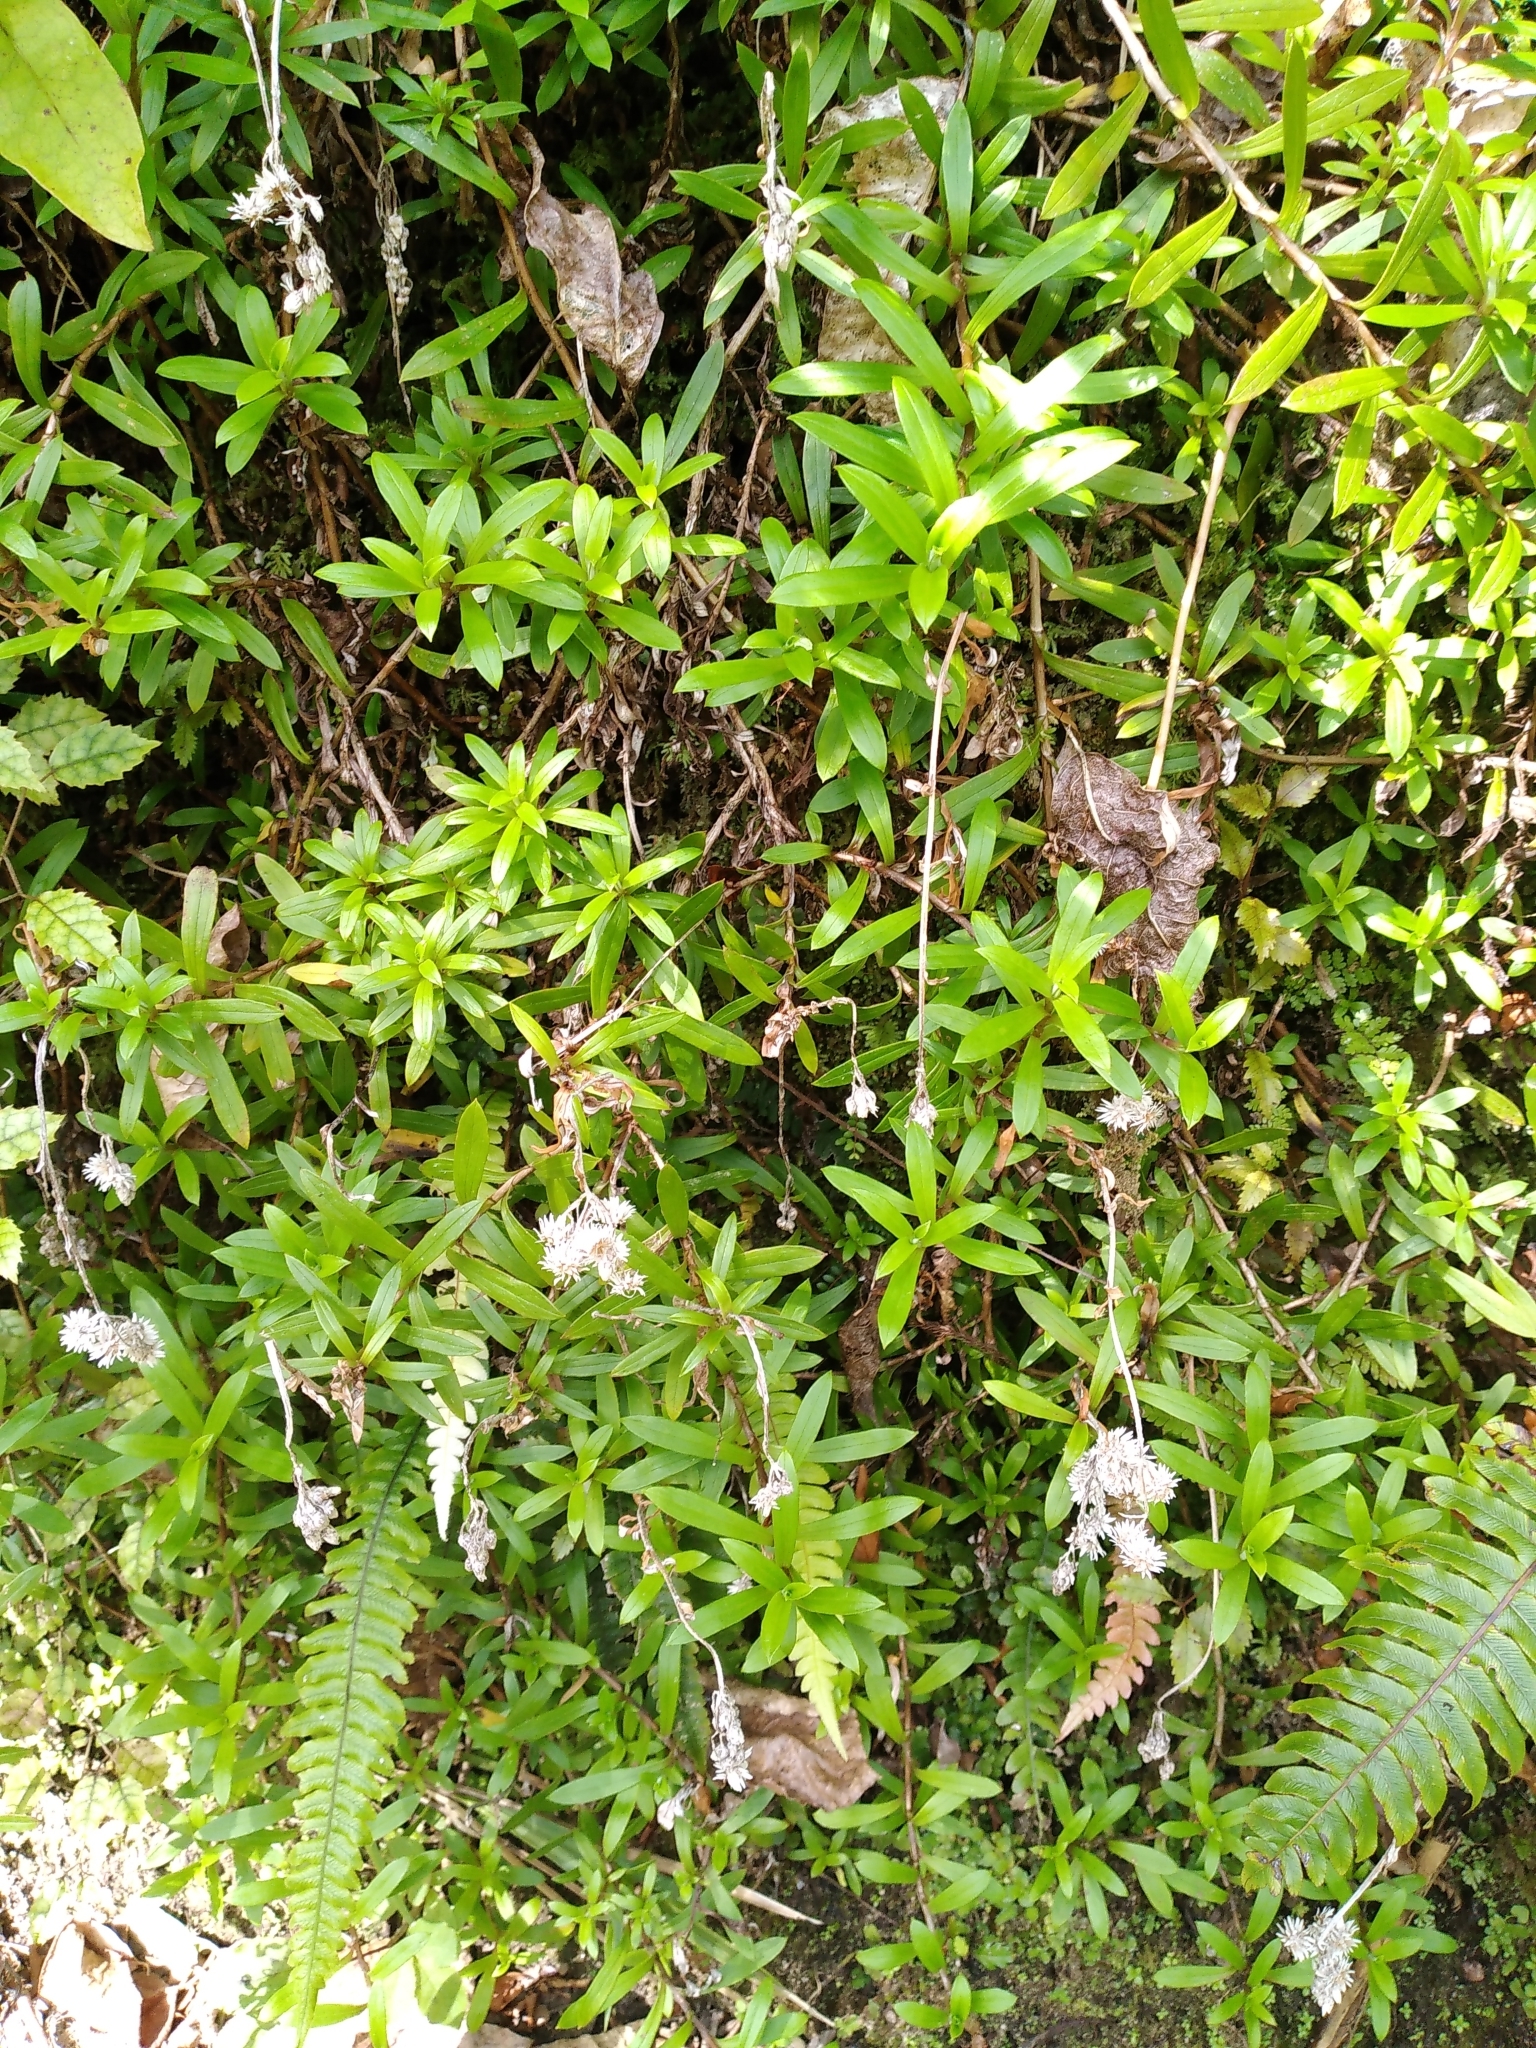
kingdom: Plantae
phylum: Tracheophyta
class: Magnoliopsida
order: Asterales
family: Asteraceae
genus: Anaphalioides
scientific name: Anaphalioides trinervis
